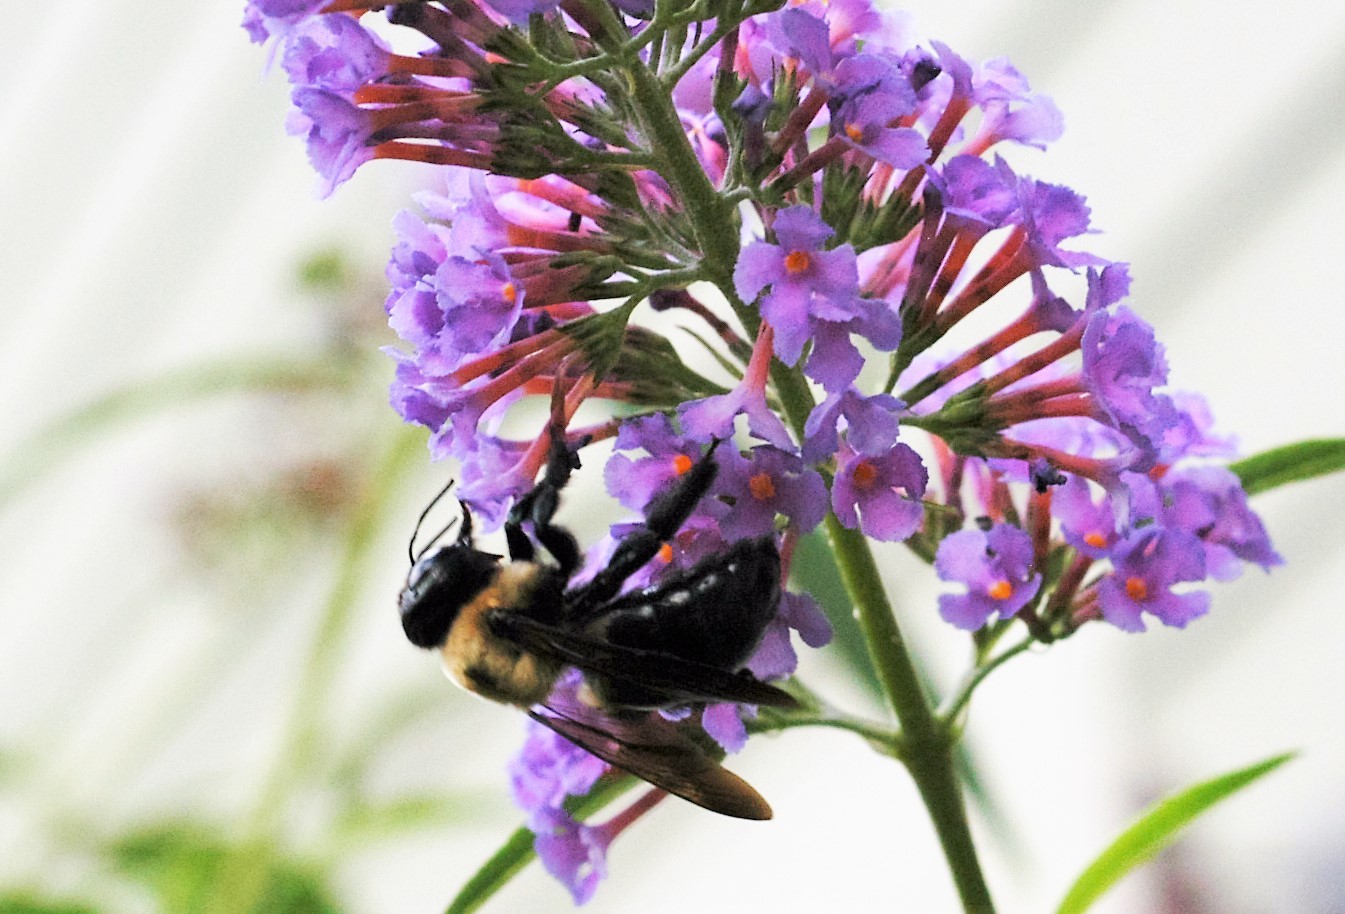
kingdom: Animalia
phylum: Arthropoda
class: Insecta
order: Hymenoptera
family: Apidae
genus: Xylocopa
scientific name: Xylocopa virginica
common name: Carpenter bee
